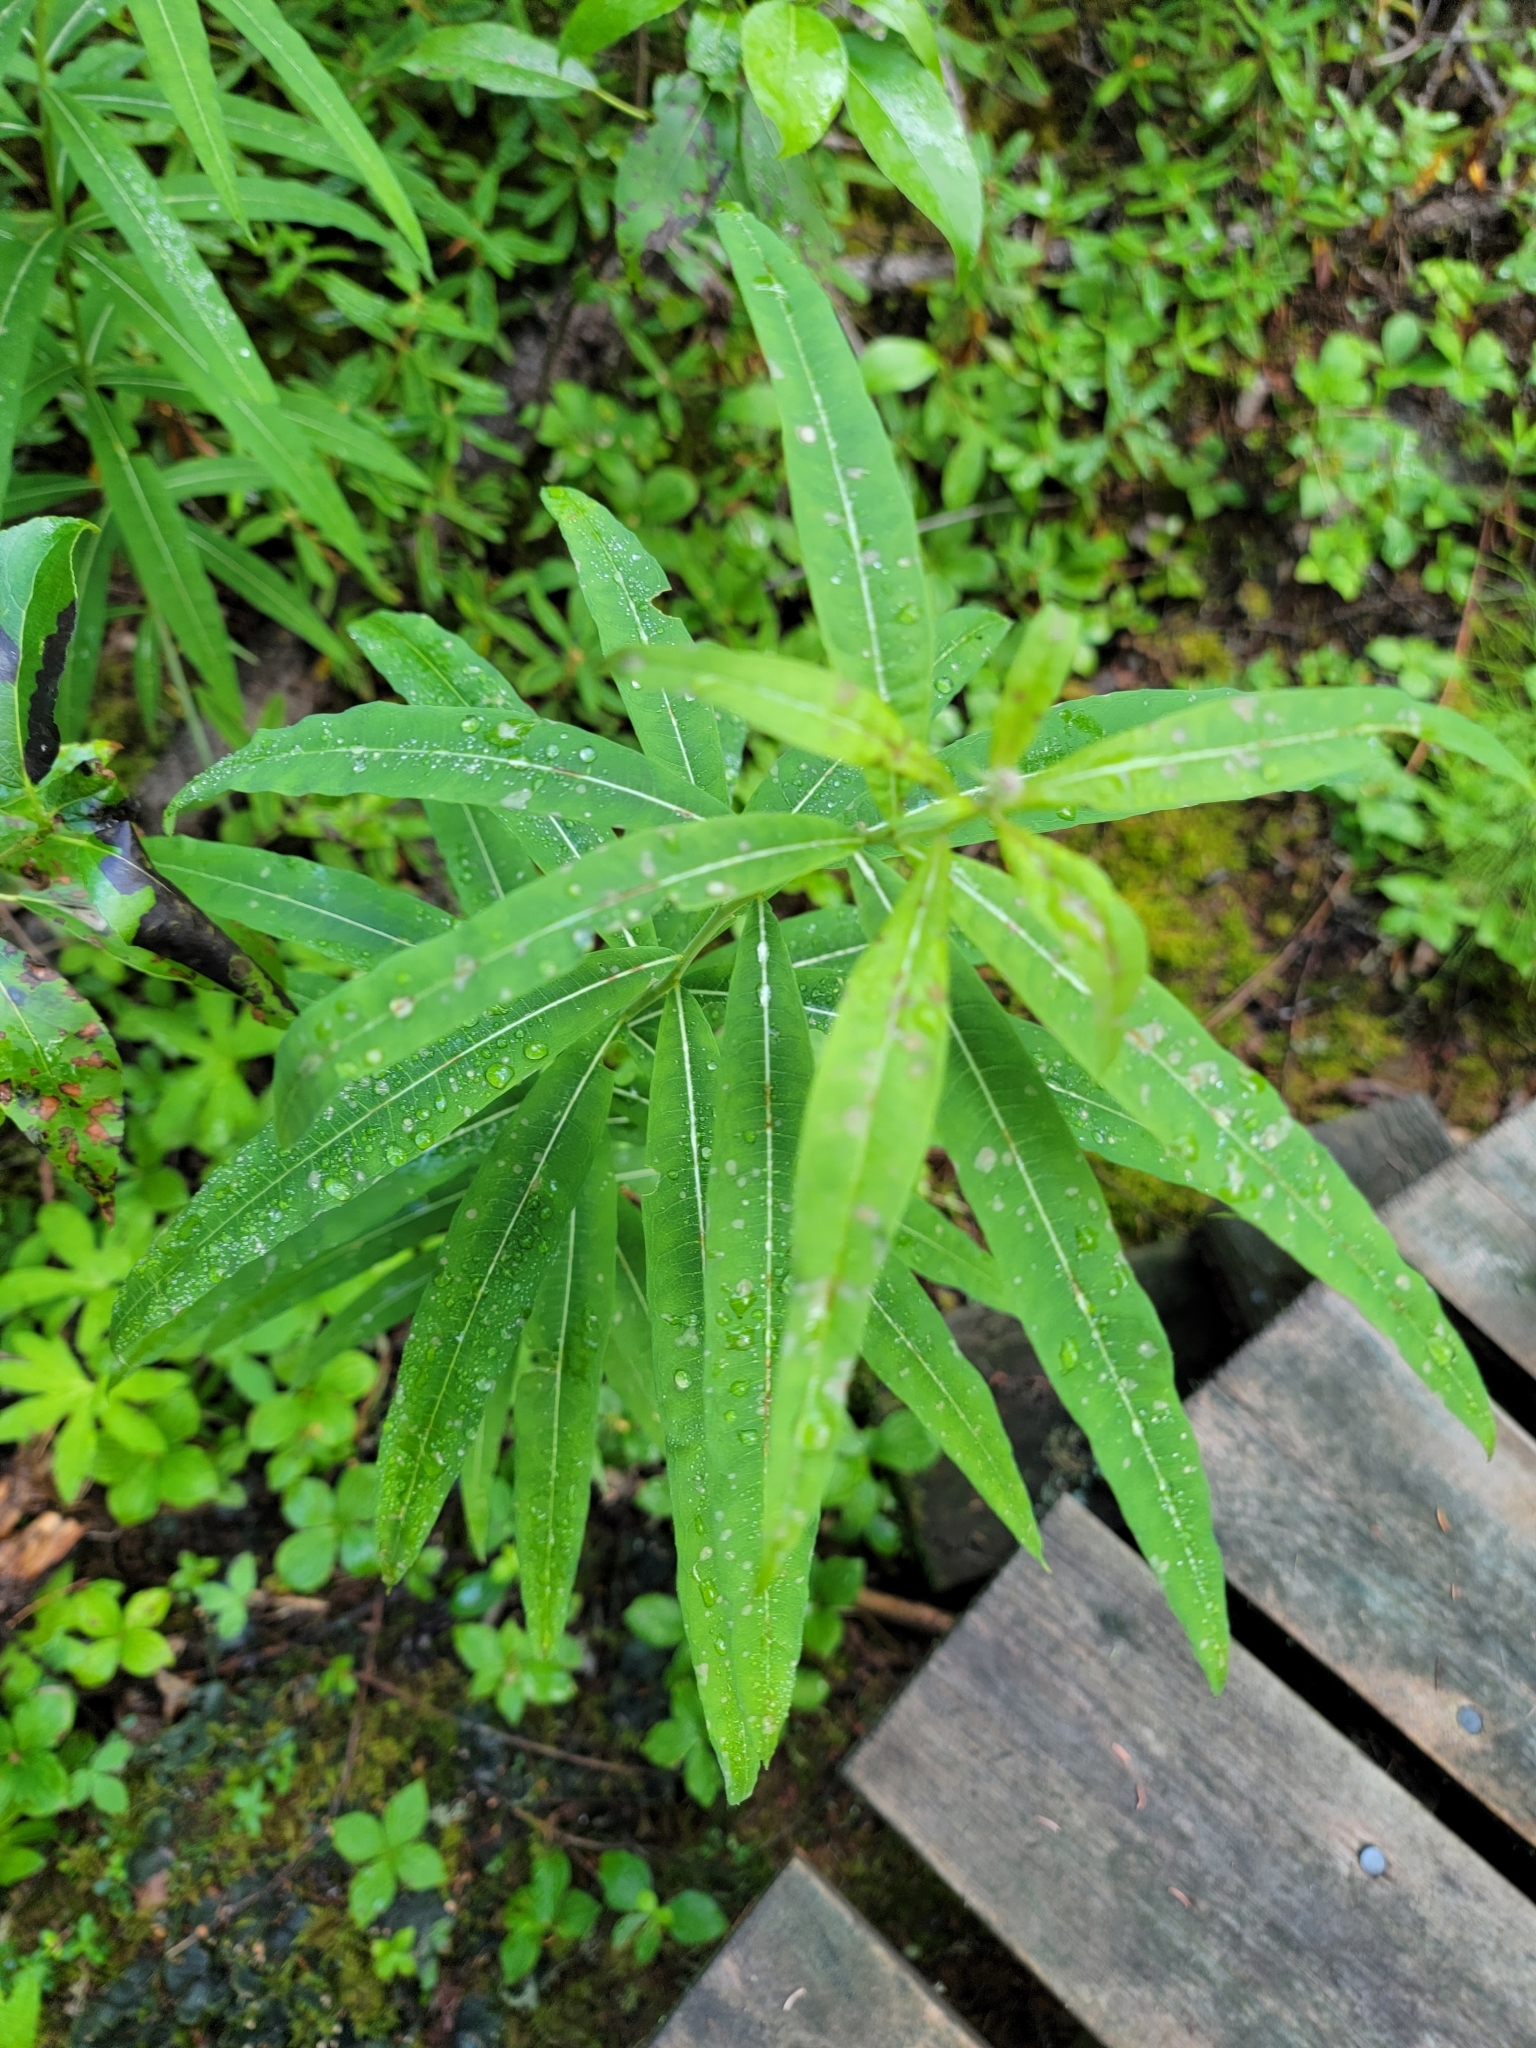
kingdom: Plantae
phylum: Tracheophyta
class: Magnoliopsida
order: Myrtales
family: Onagraceae
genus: Chamaenerion
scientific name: Chamaenerion angustifolium
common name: Fireweed
